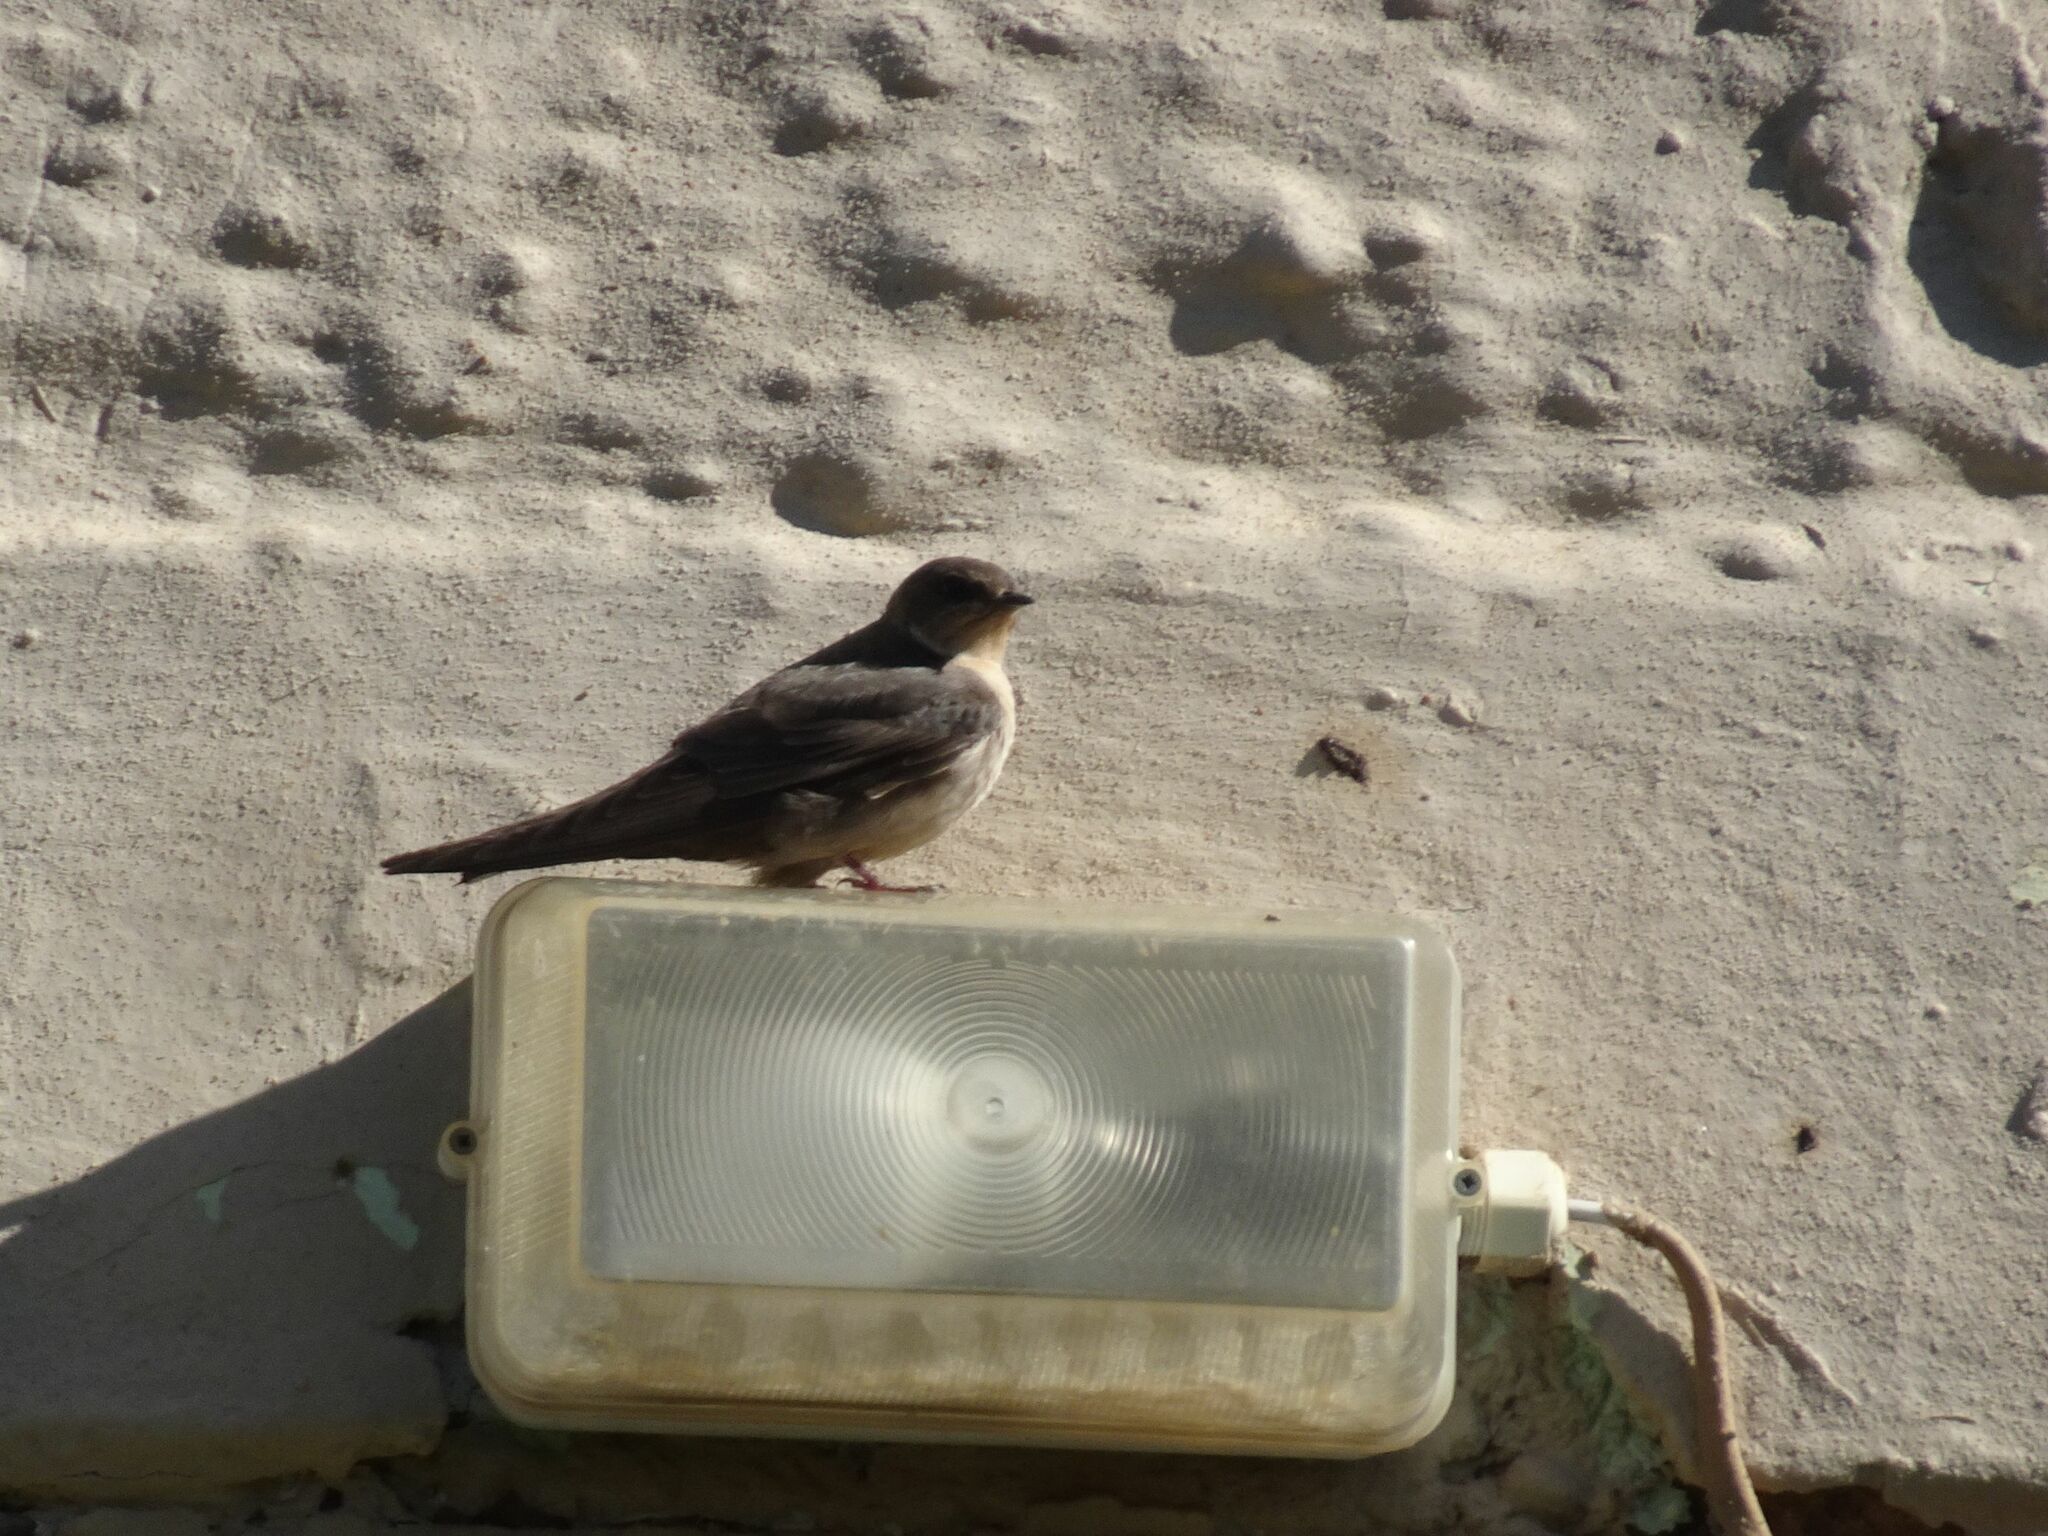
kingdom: Animalia
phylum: Chordata
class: Aves
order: Passeriformes
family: Hirundinidae
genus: Ptyonoprogne
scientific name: Ptyonoprogne fuligula
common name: Rock martin
